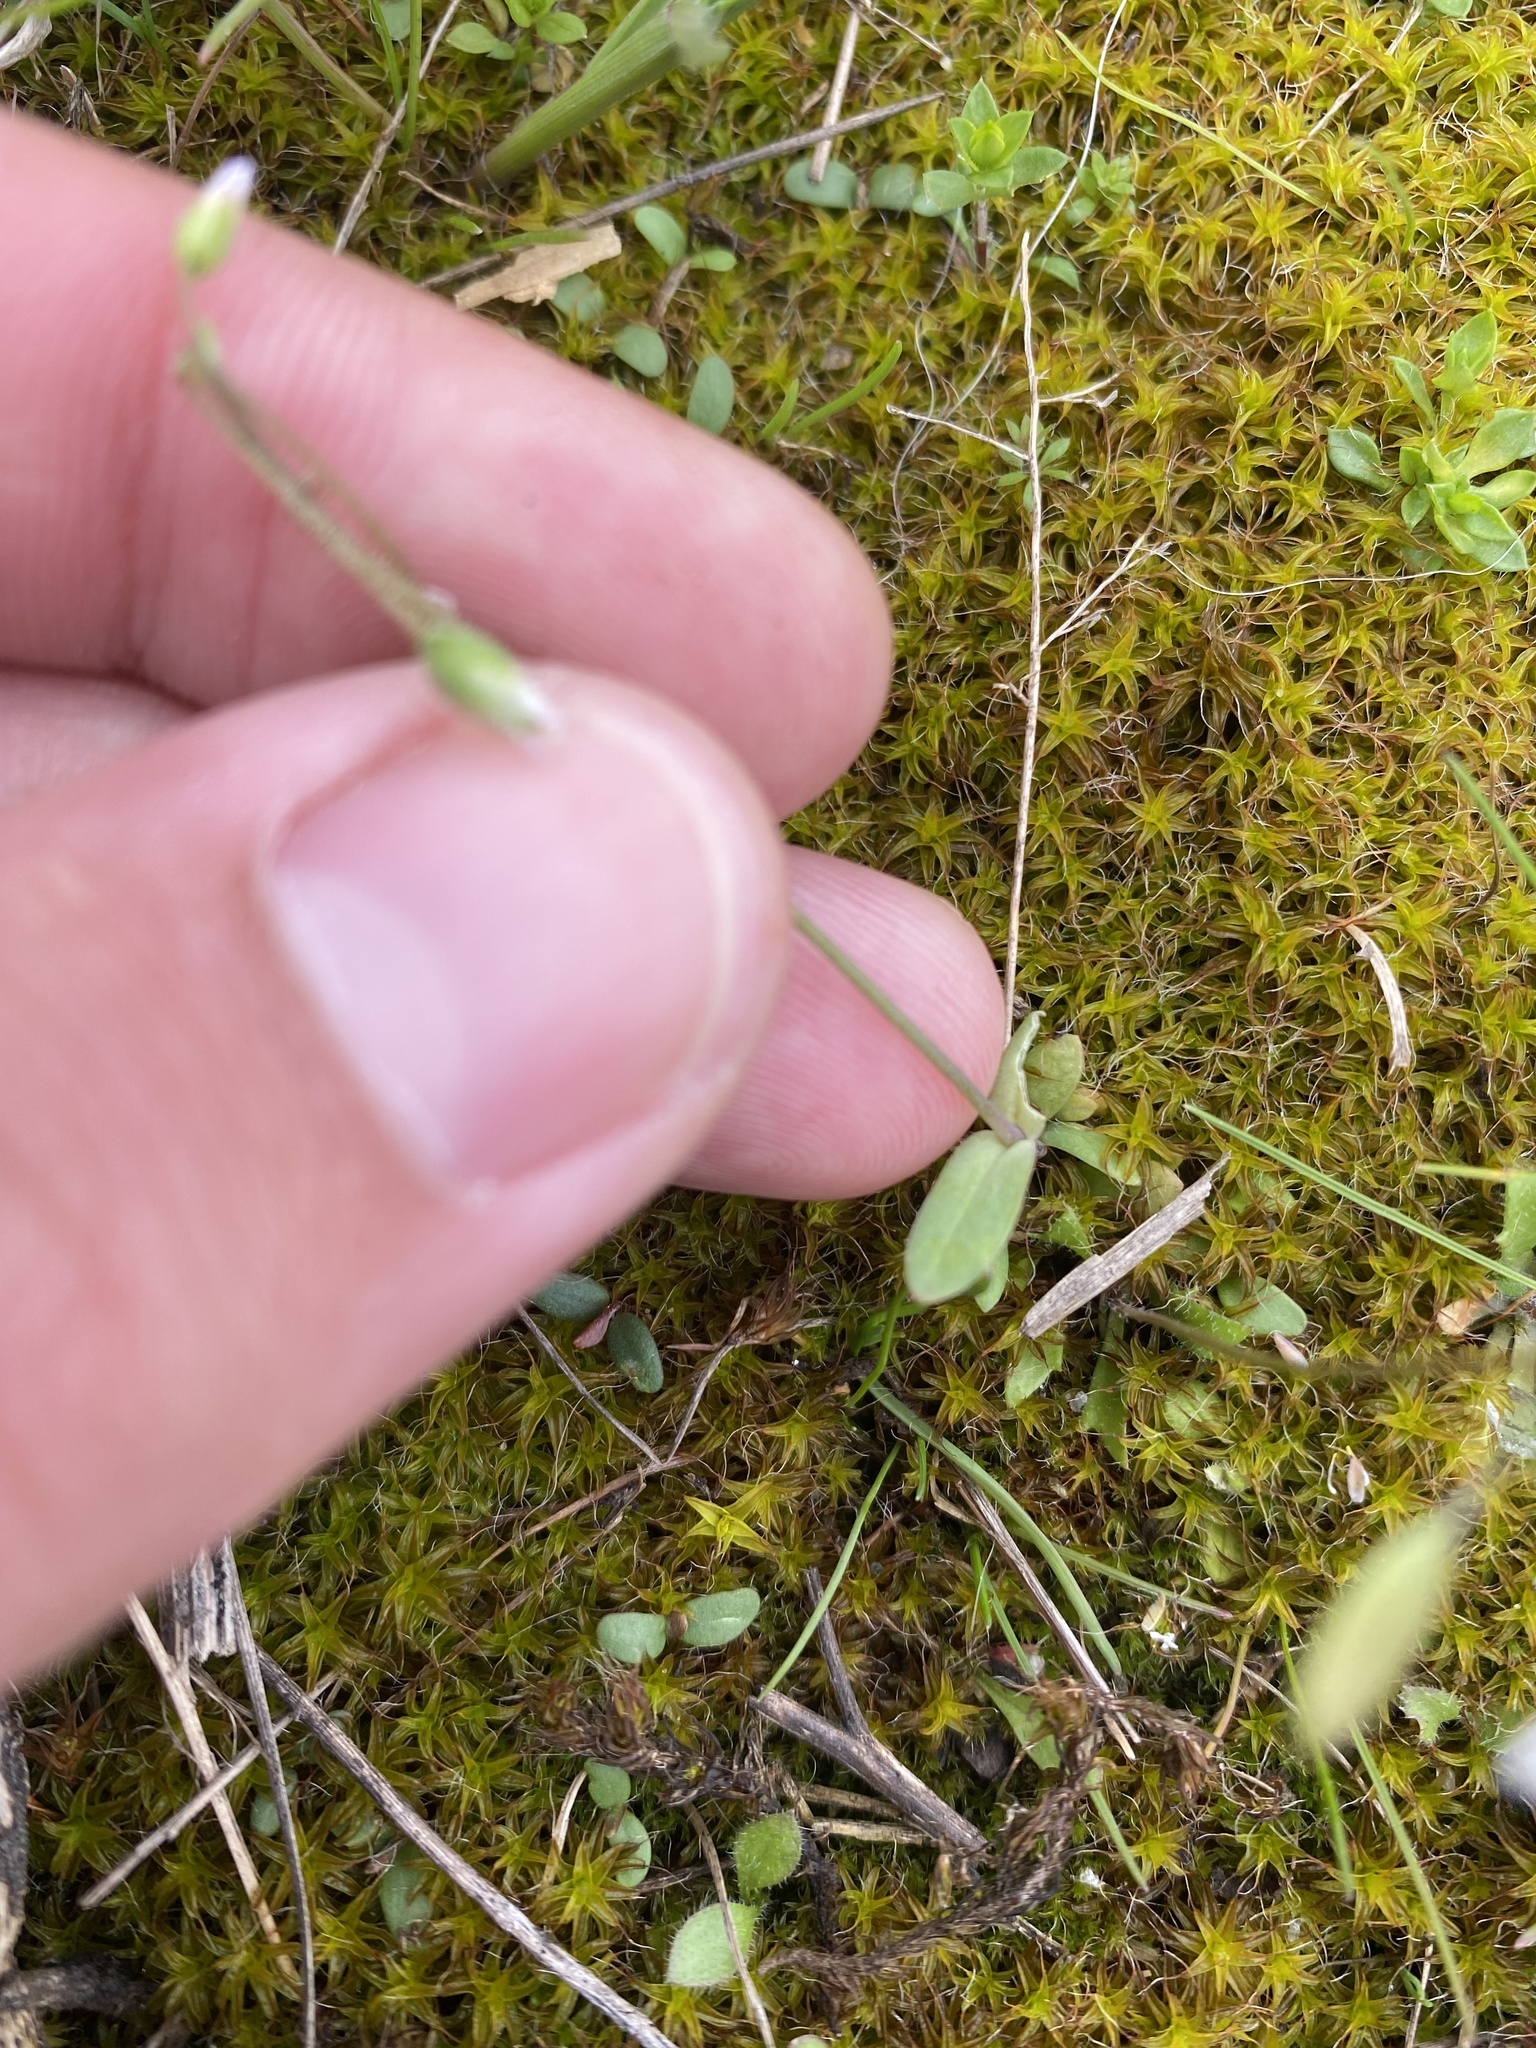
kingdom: Plantae
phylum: Tracheophyta
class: Magnoliopsida
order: Brassicales
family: Brassicaceae
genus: Draba
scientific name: Draba verna
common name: Spring draba
